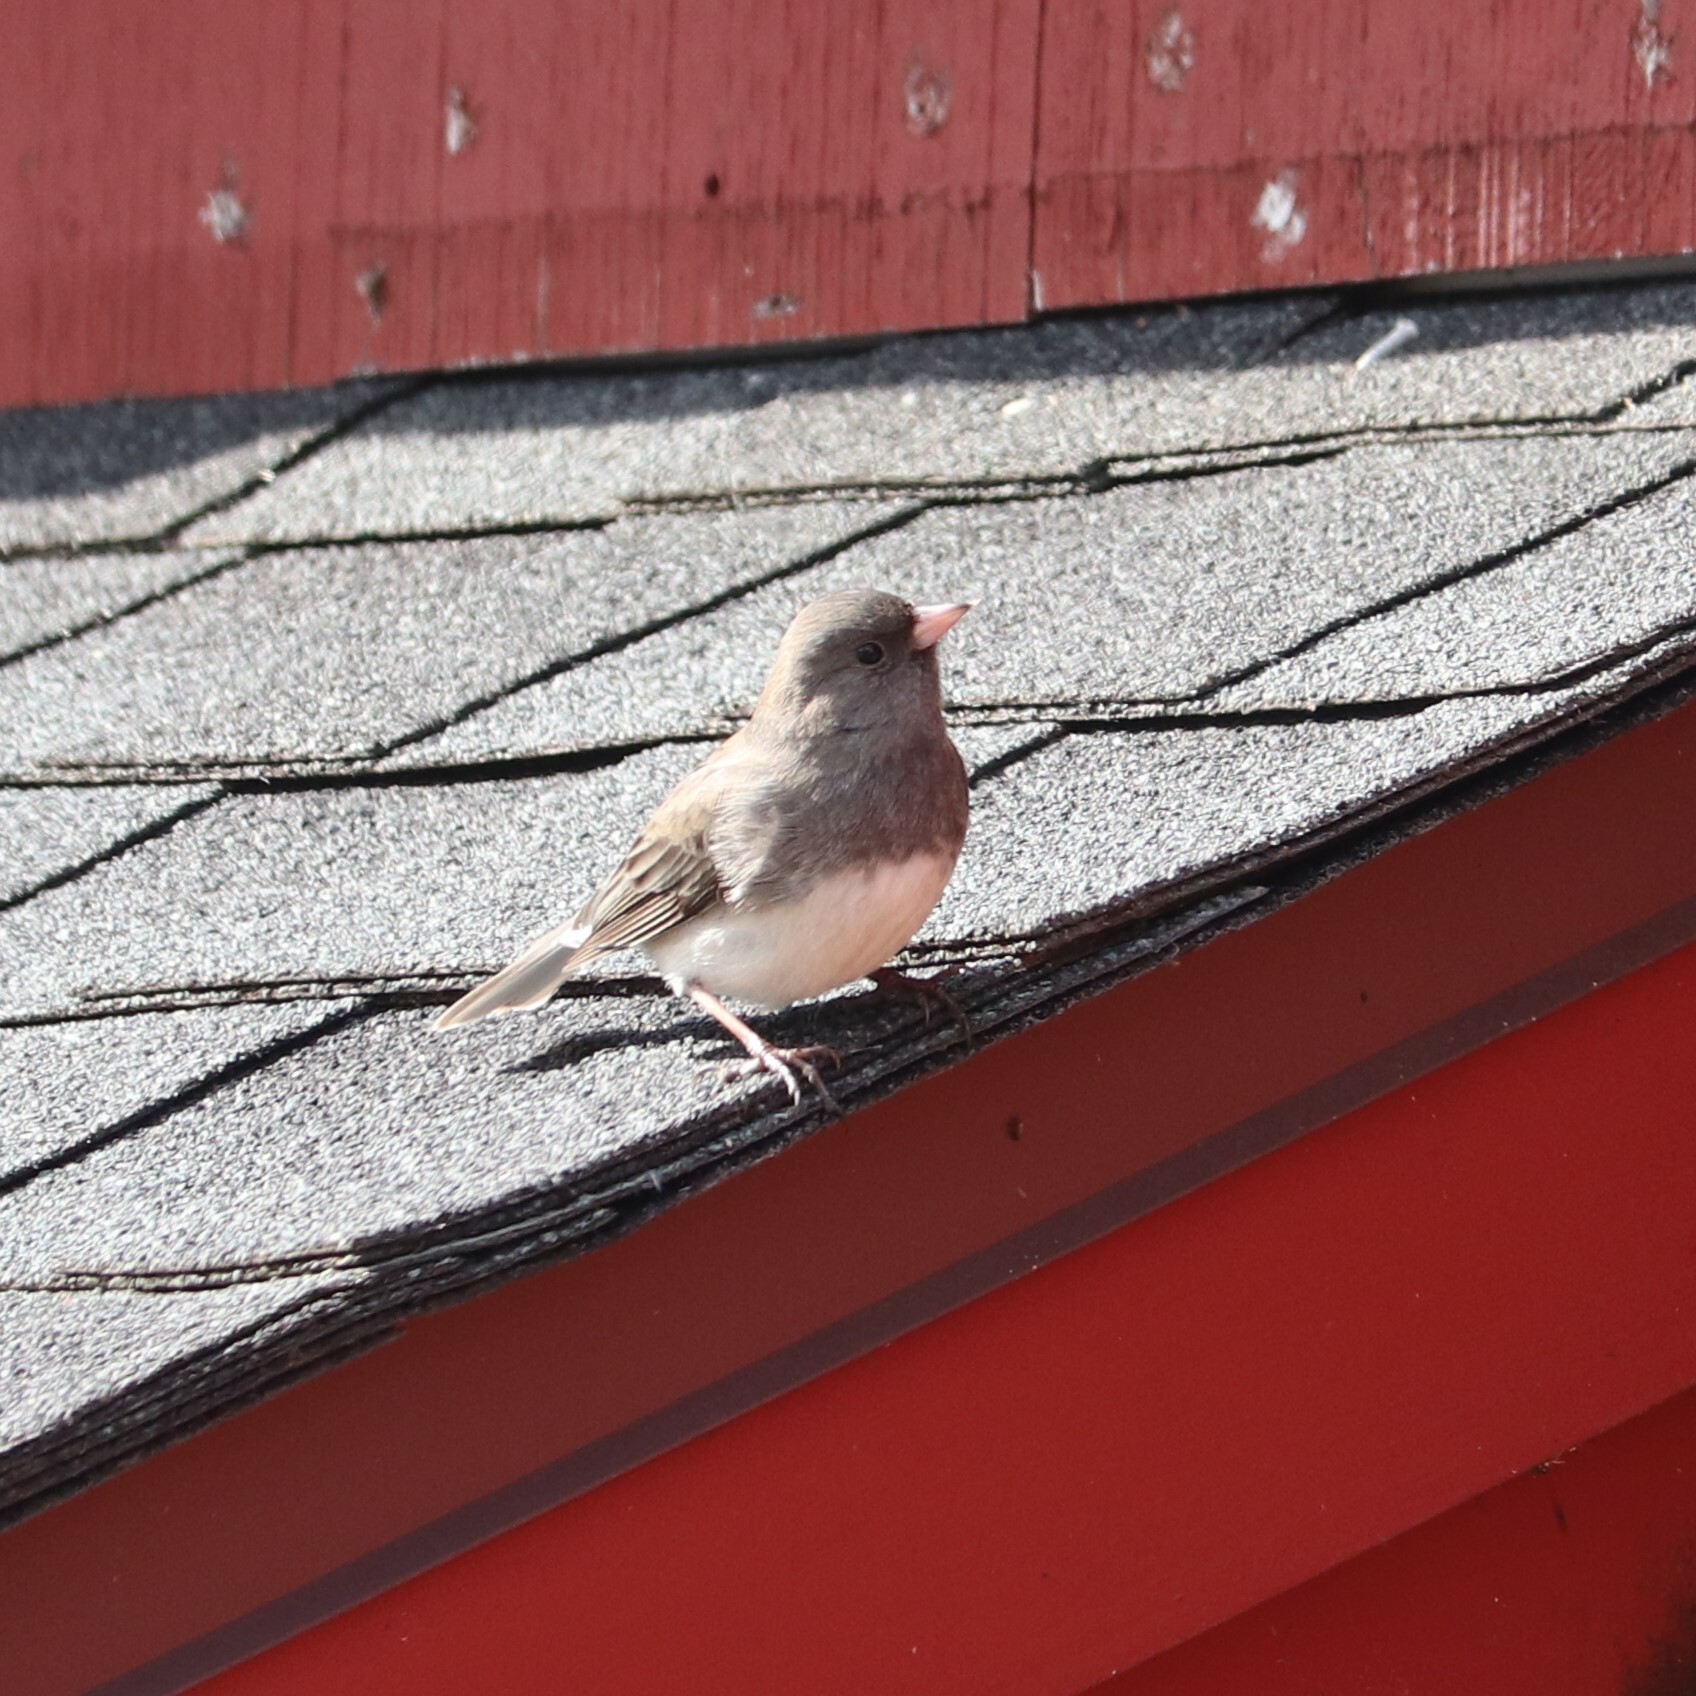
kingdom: Animalia
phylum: Chordata
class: Aves
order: Passeriformes
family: Passerellidae
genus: Junco
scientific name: Junco hyemalis
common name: Dark-eyed junco
